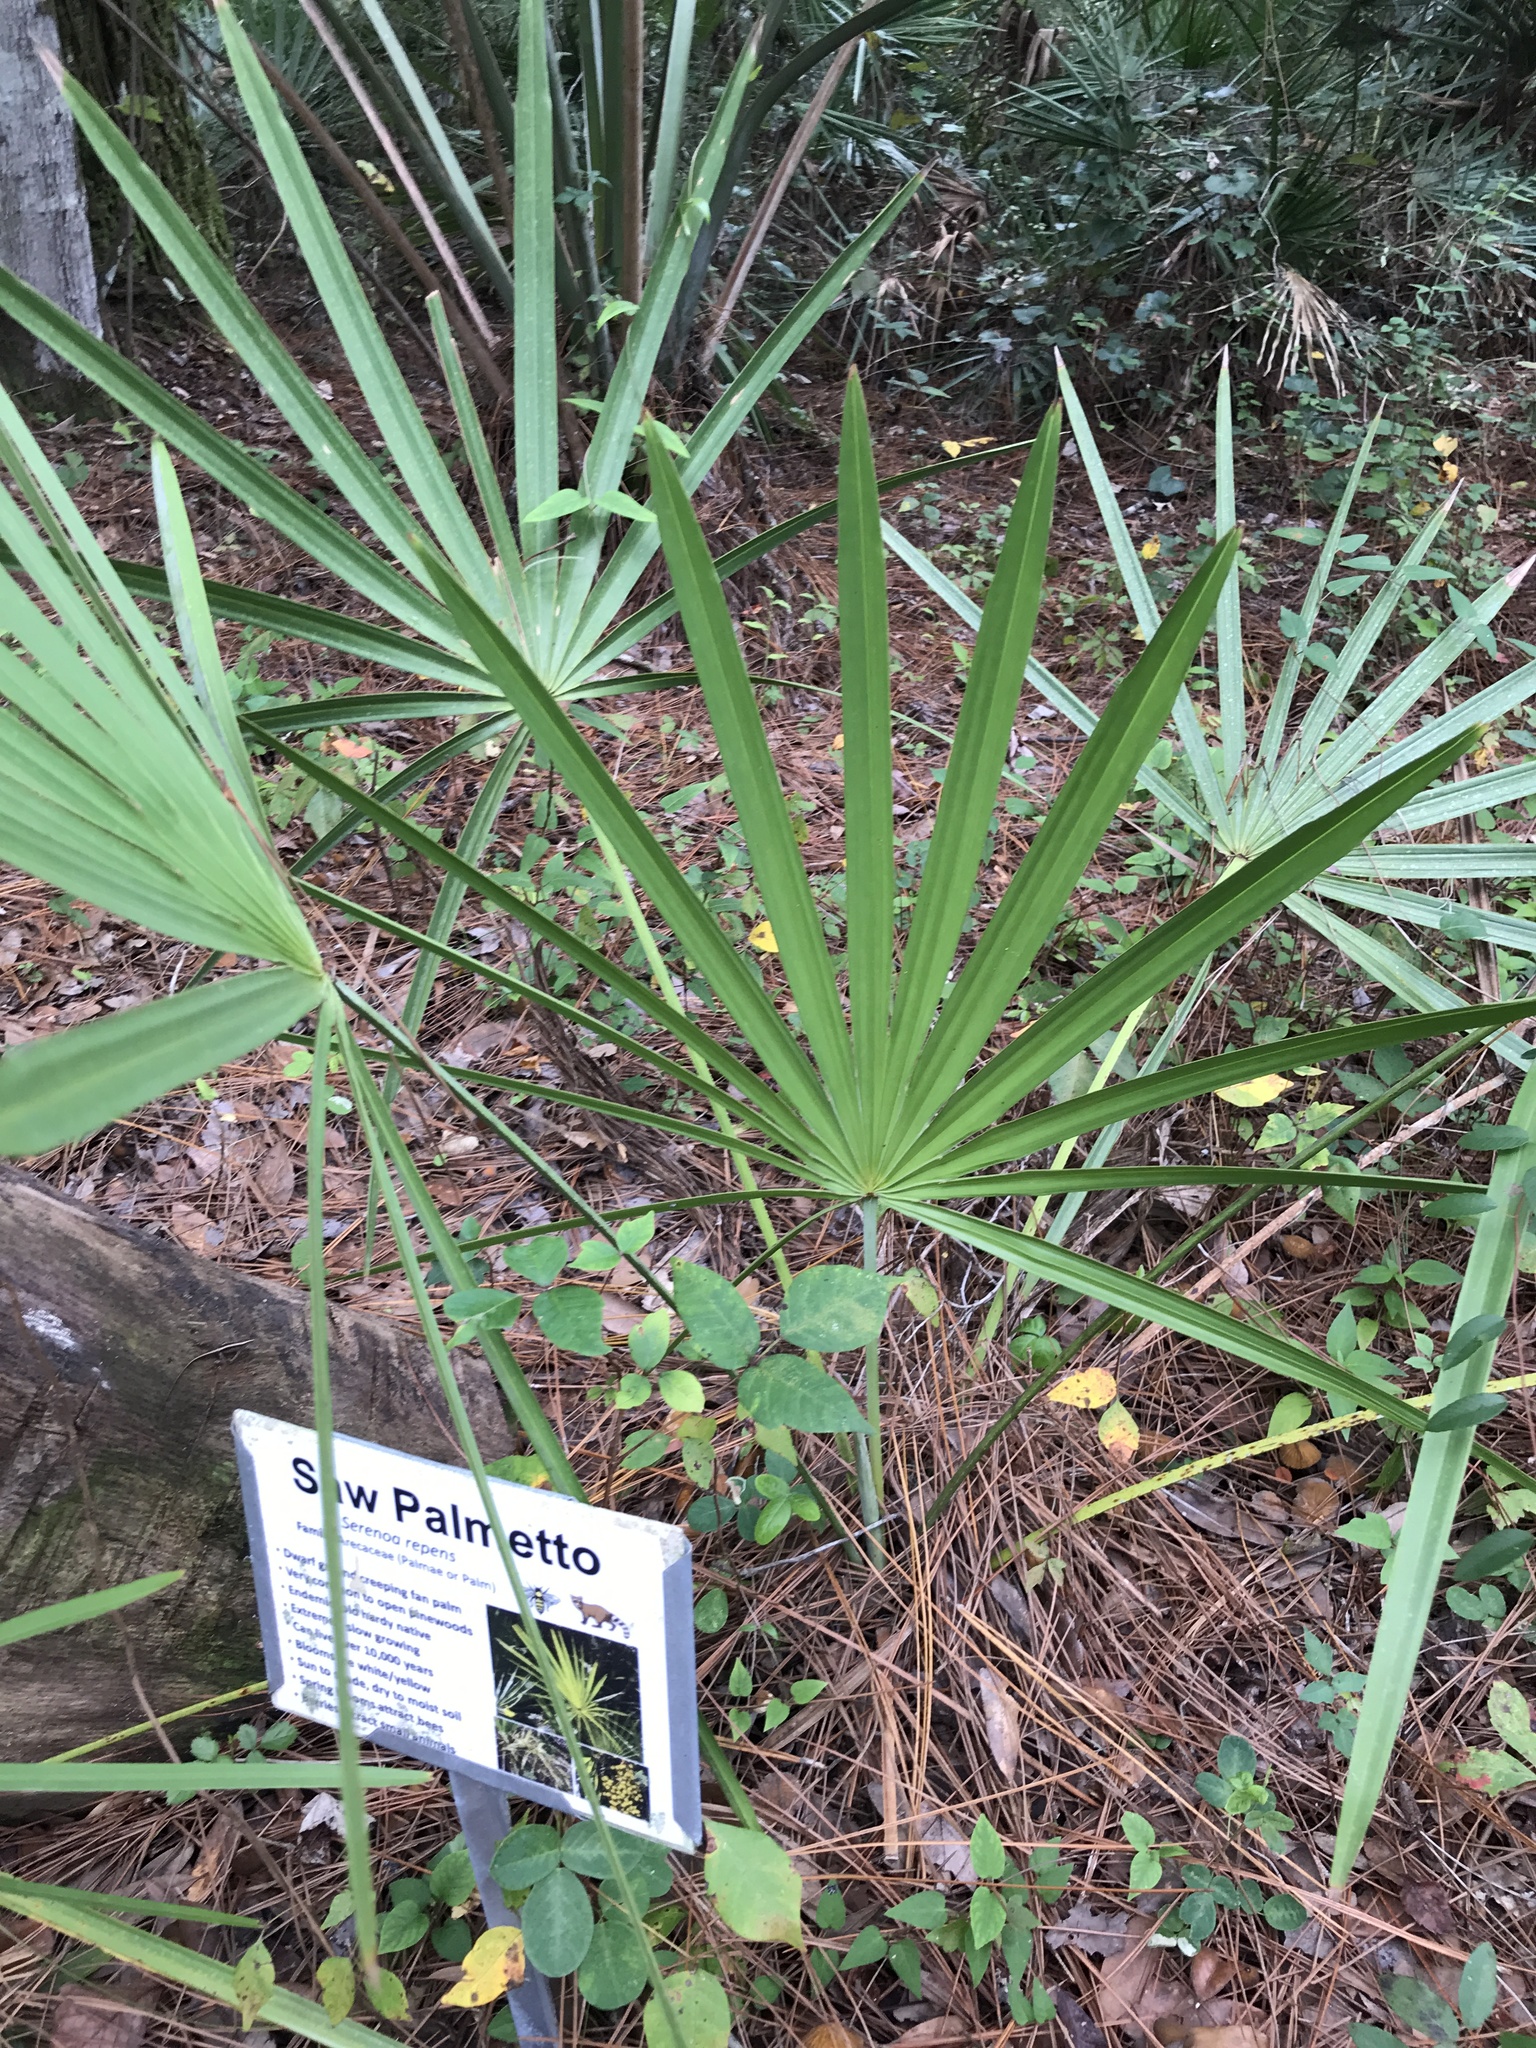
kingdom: Plantae
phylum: Tracheophyta
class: Liliopsida
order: Arecales
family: Arecaceae
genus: Serenoa
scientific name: Serenoa repens
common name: Saw-palmetto
